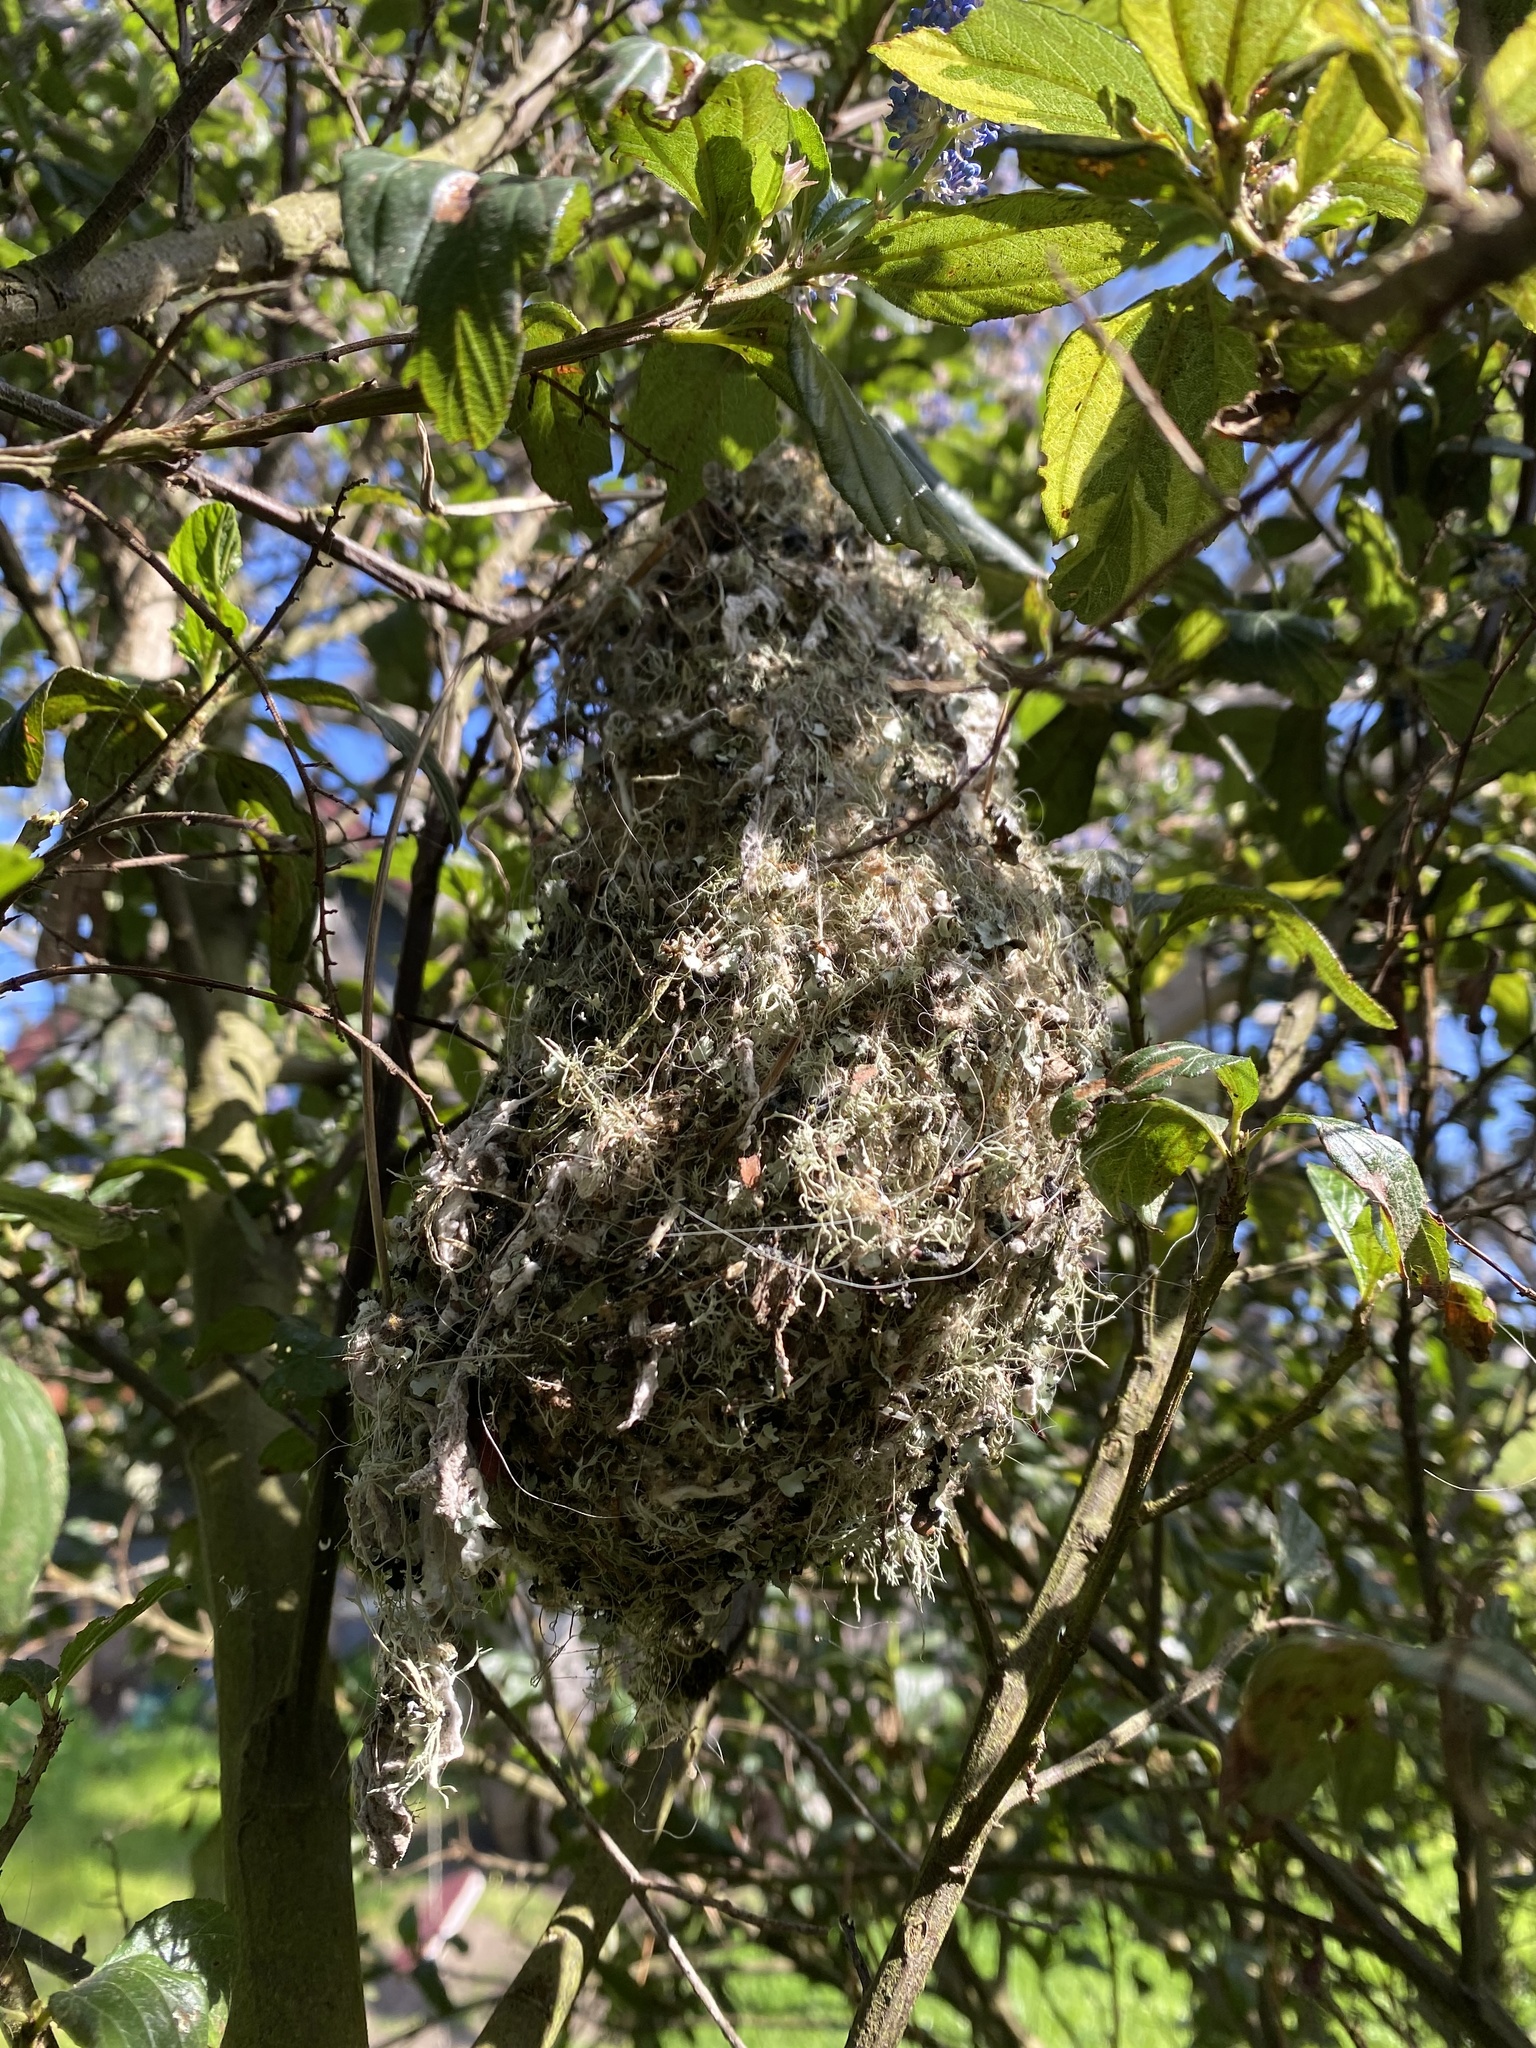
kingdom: Animalia
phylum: Chordata
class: Aves
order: Passeriformes
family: Aegithalidae
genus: Psaltriparus
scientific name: Psaltriparus minimus
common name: American bushtit
